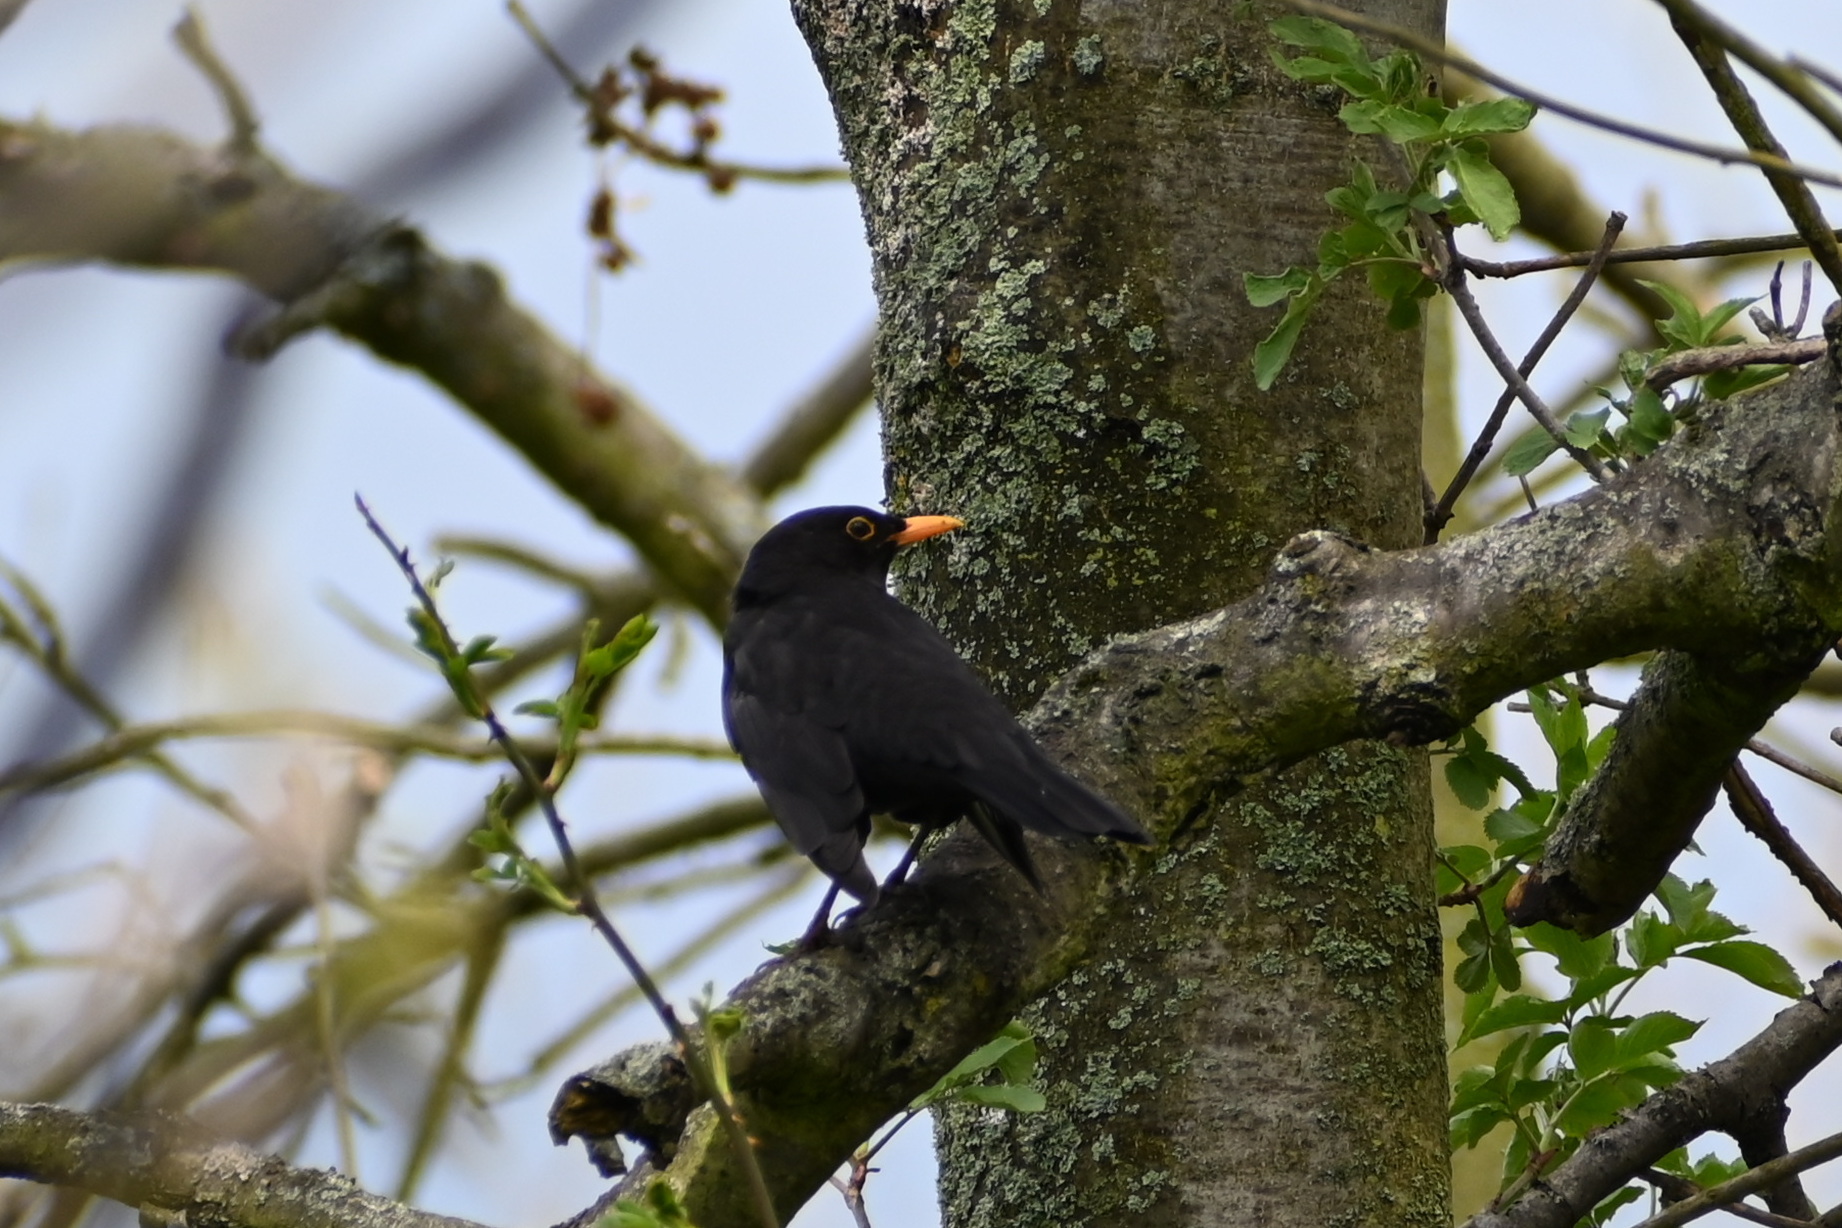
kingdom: Animalia
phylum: Chordata
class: Aves
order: Passeriformes
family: Turdidae
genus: Turdus
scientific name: Turdus merula
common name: Common blackbird
